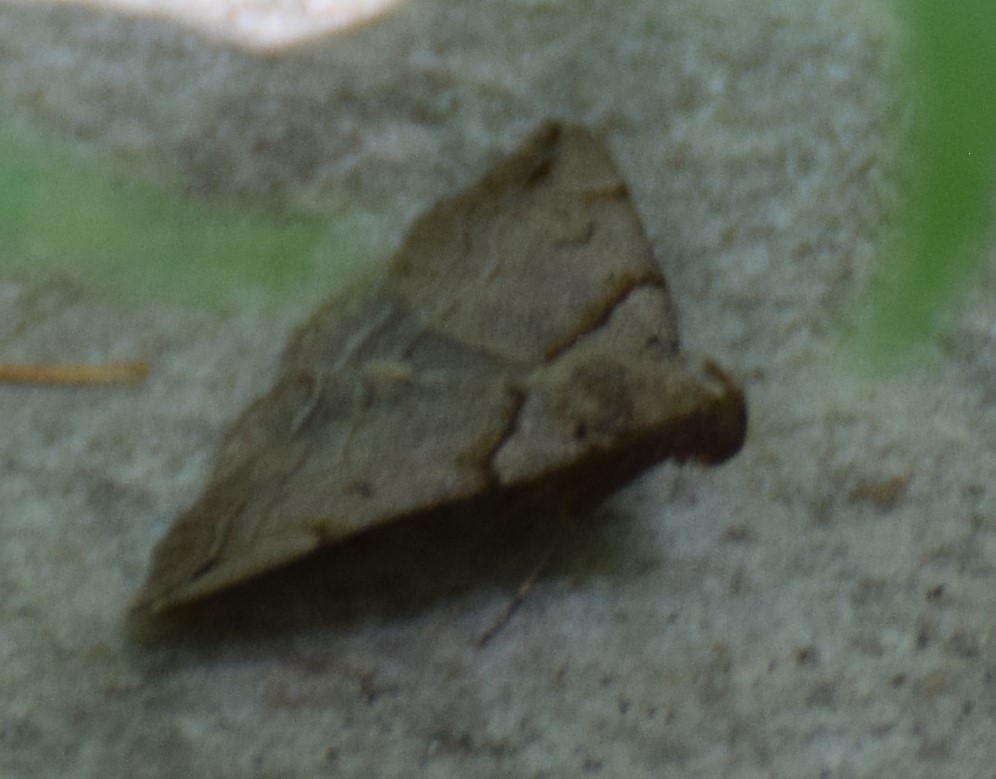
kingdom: Animalia
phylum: Arthropoda
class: Insecta
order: Lepidoptera
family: Erebidae
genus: Zanclognatha
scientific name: Zanclognatha laevigata
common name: Variable fan-foot
